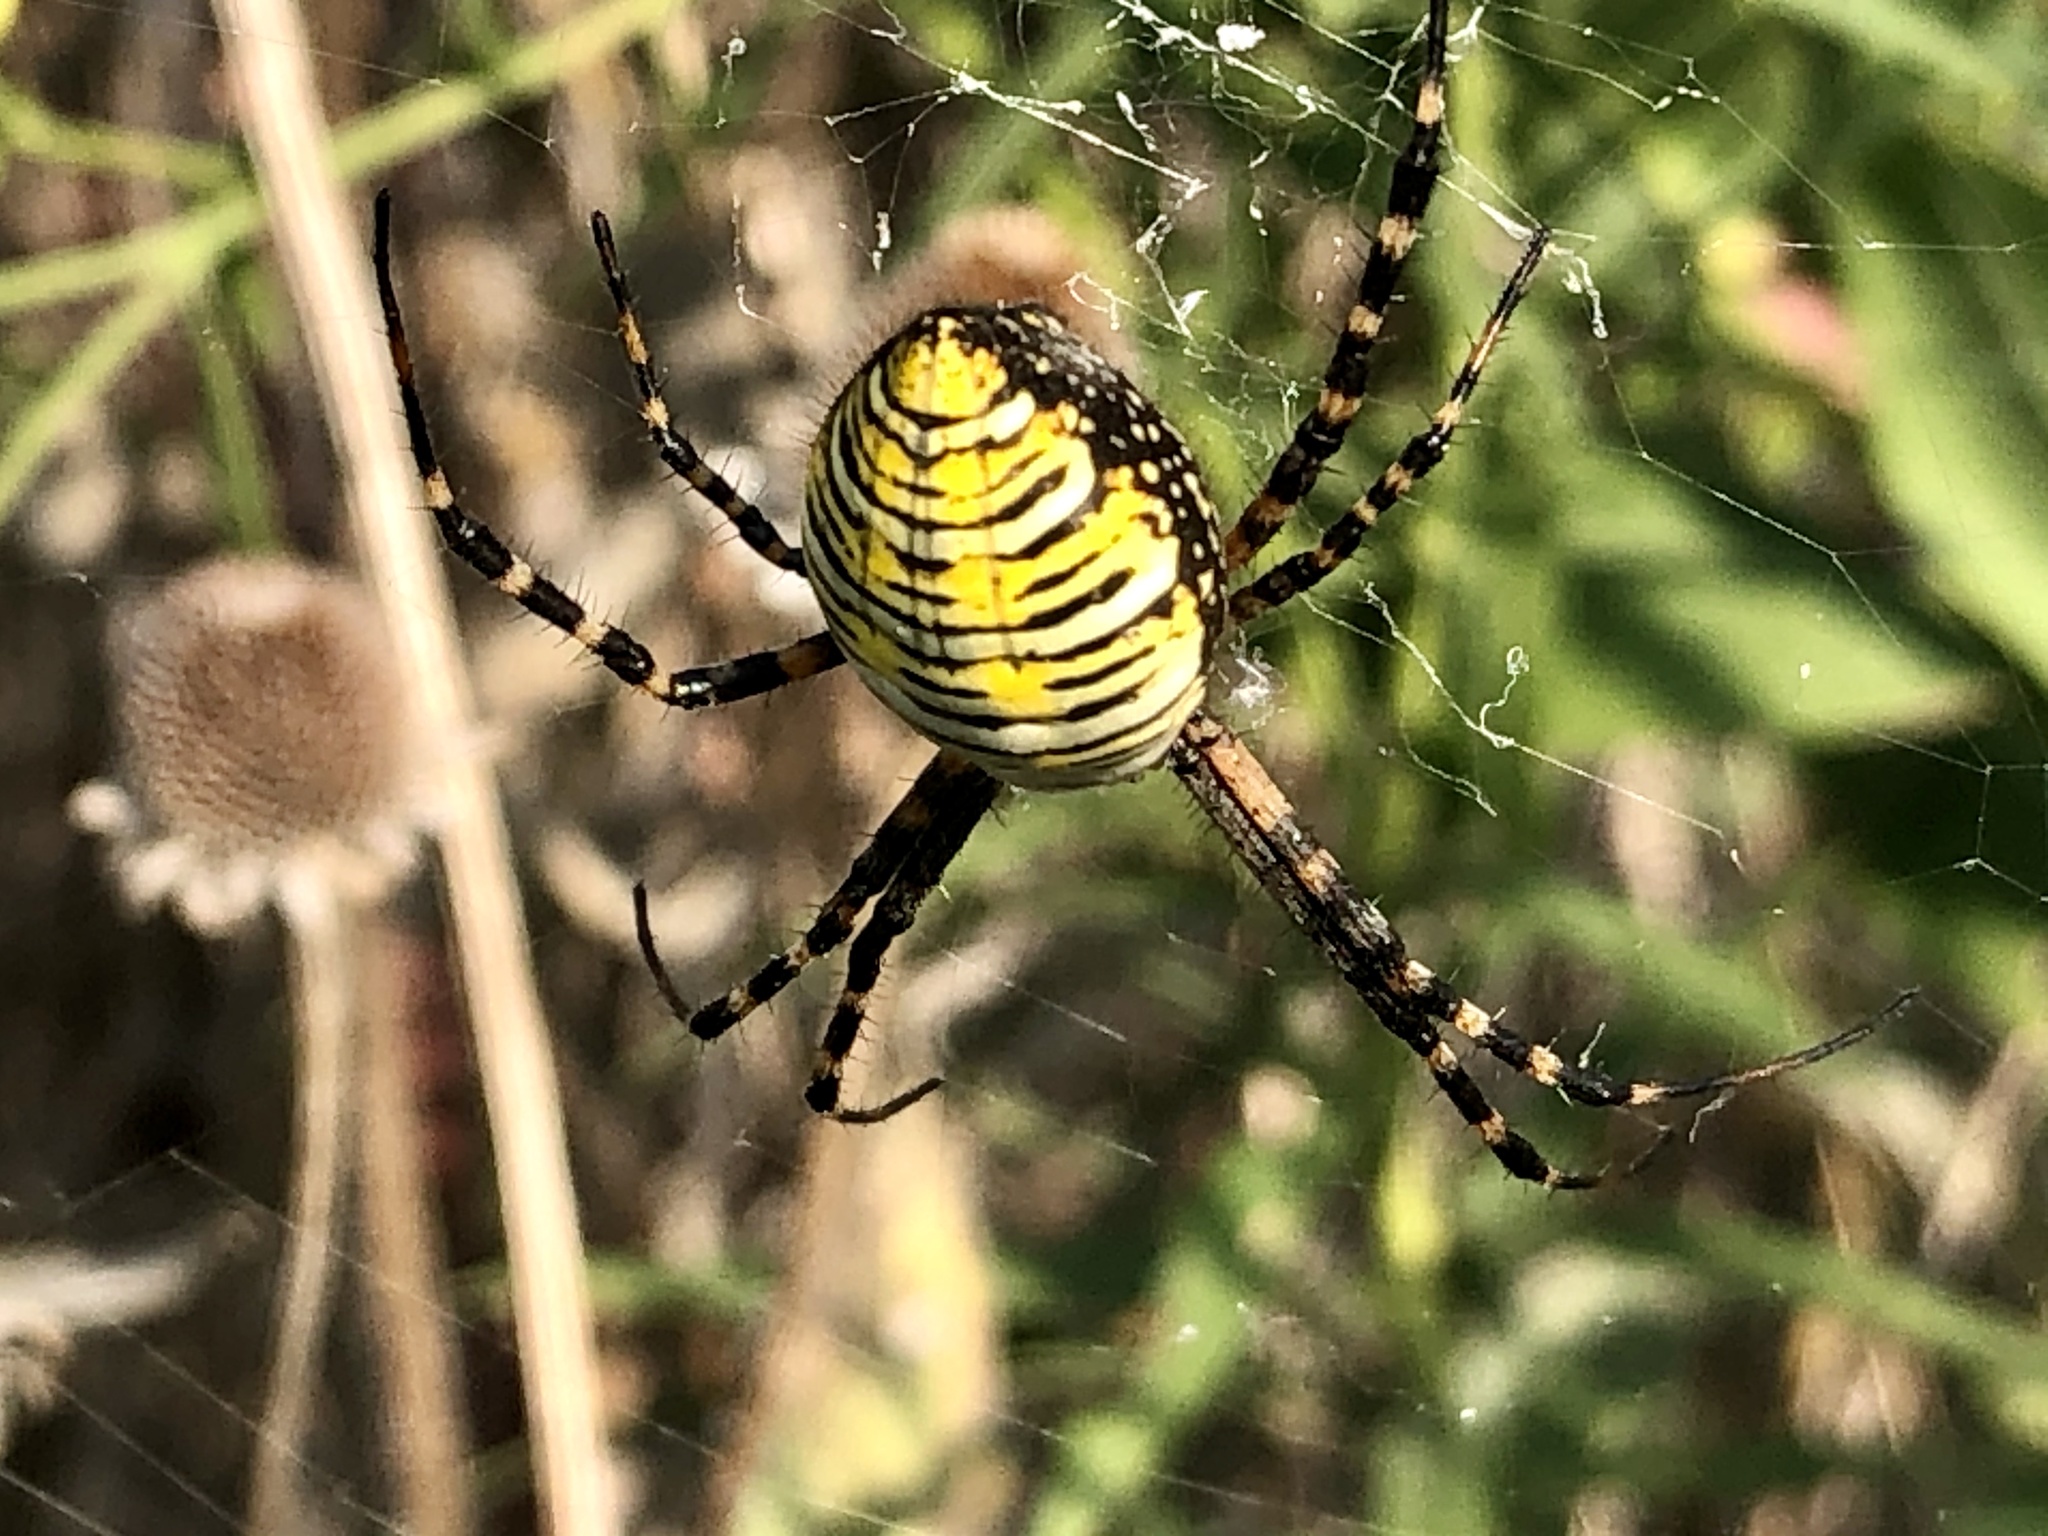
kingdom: Animalia
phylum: Arthropoda
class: Arachnida
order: Araneae
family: Araneidae
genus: Argiope
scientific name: Argiope trifasciata
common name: Banded garden spider
